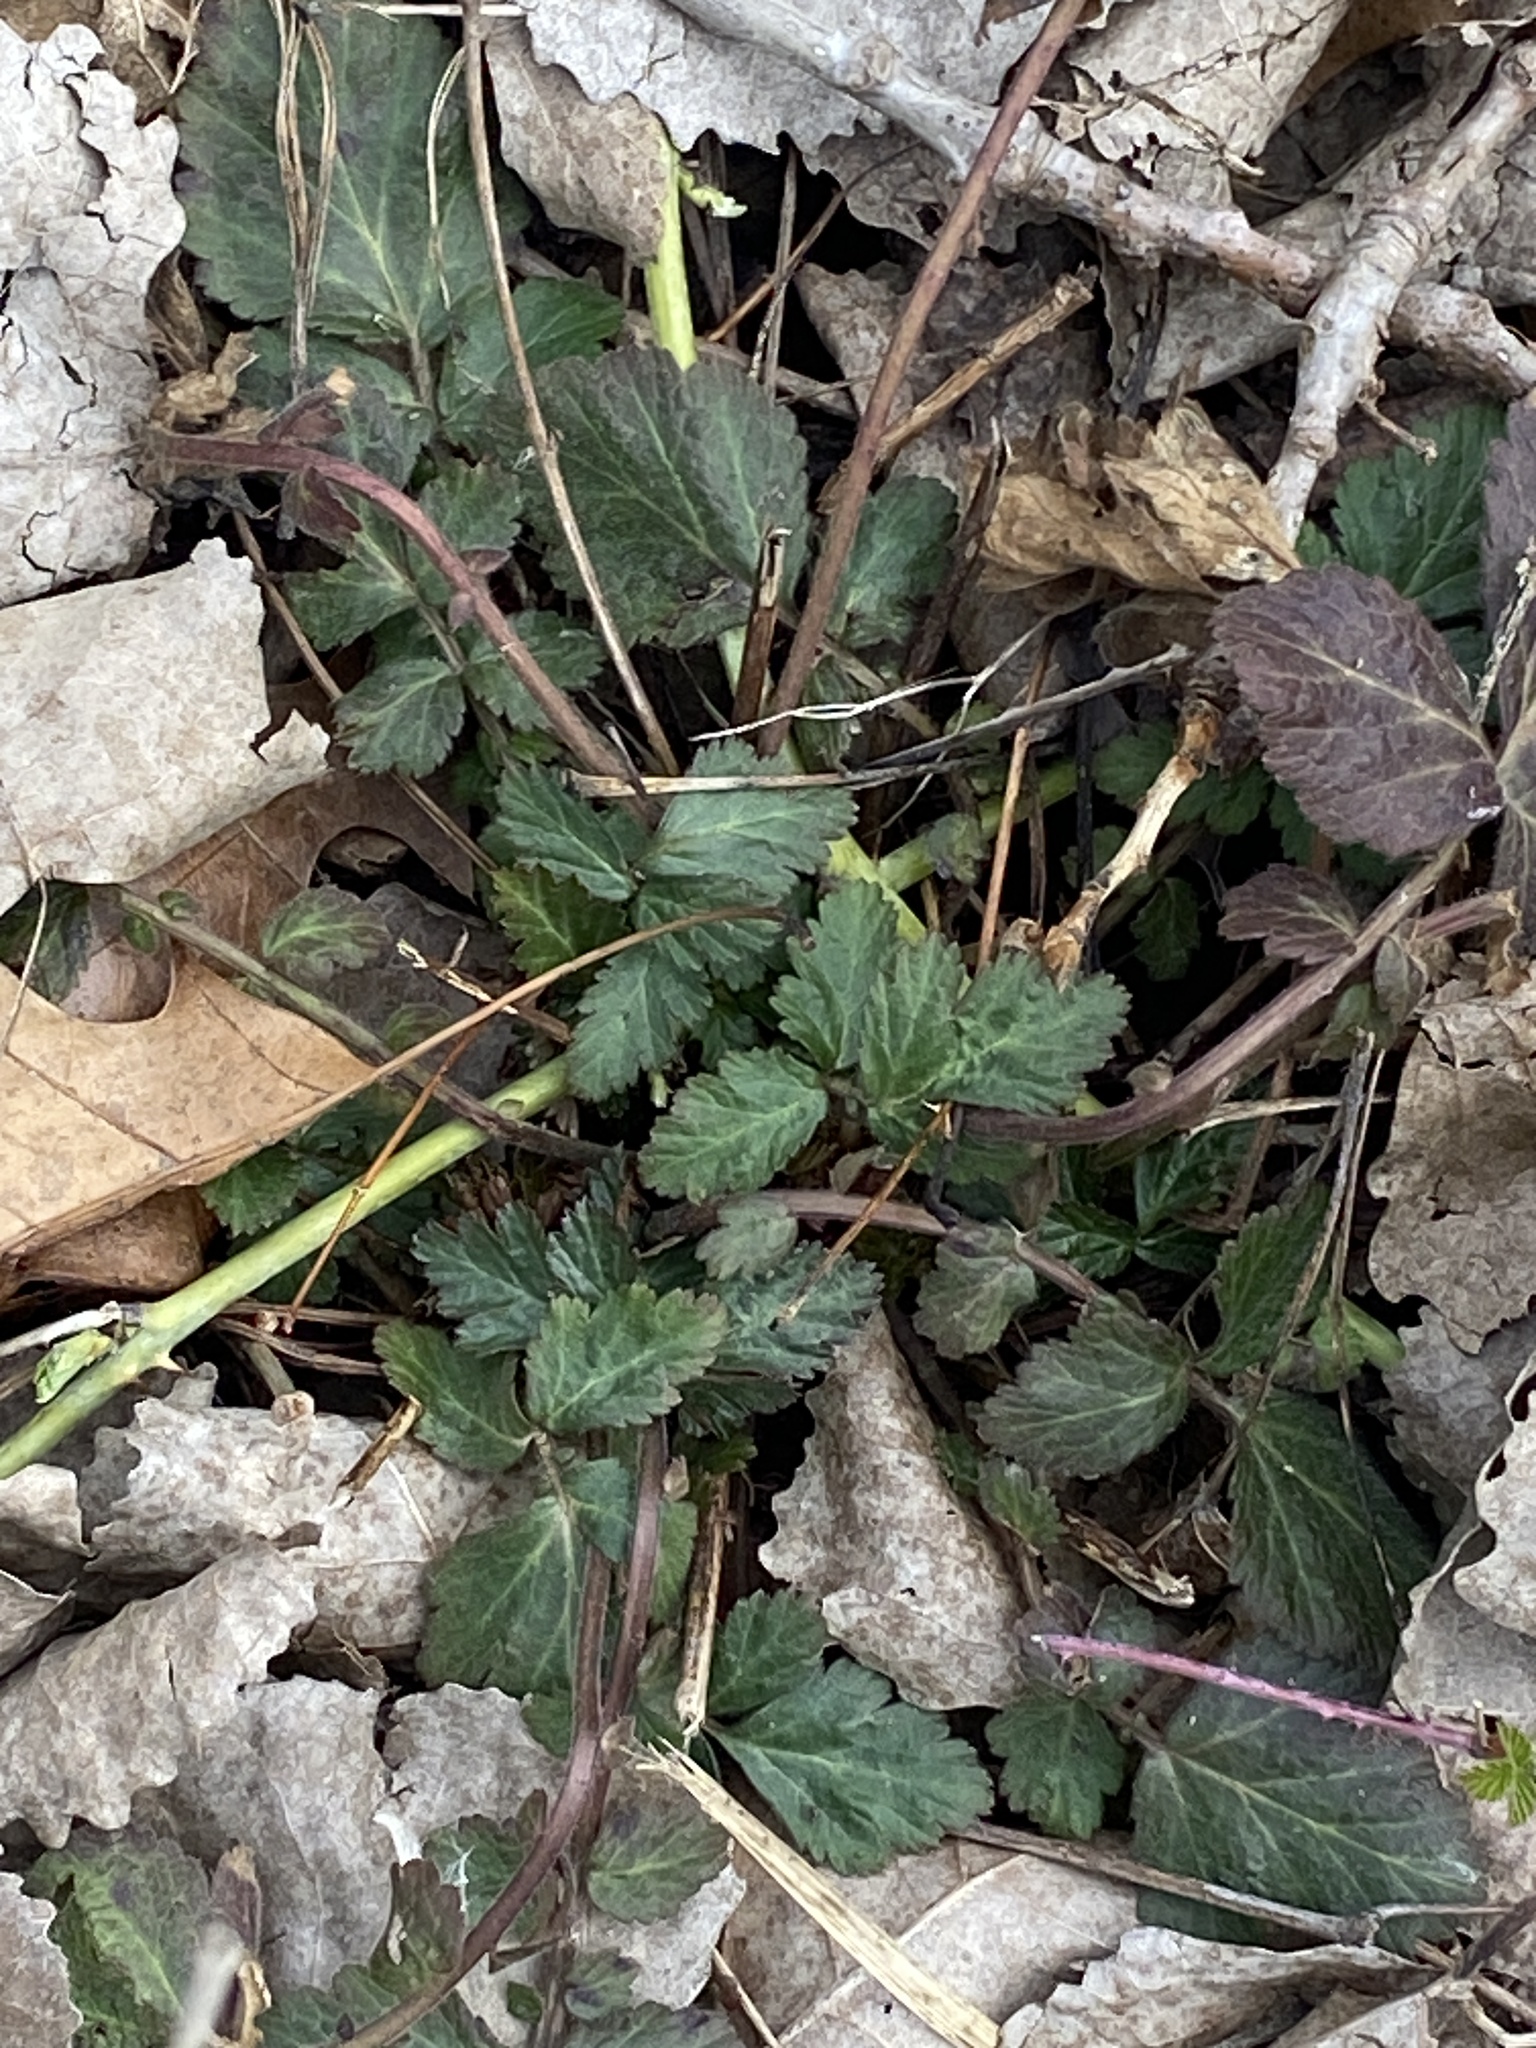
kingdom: Plantae
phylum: Tracheophyta
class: Magnoliopsida
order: Rosales
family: Rosaceae
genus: Geum
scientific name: Geum canadense
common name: White avens
